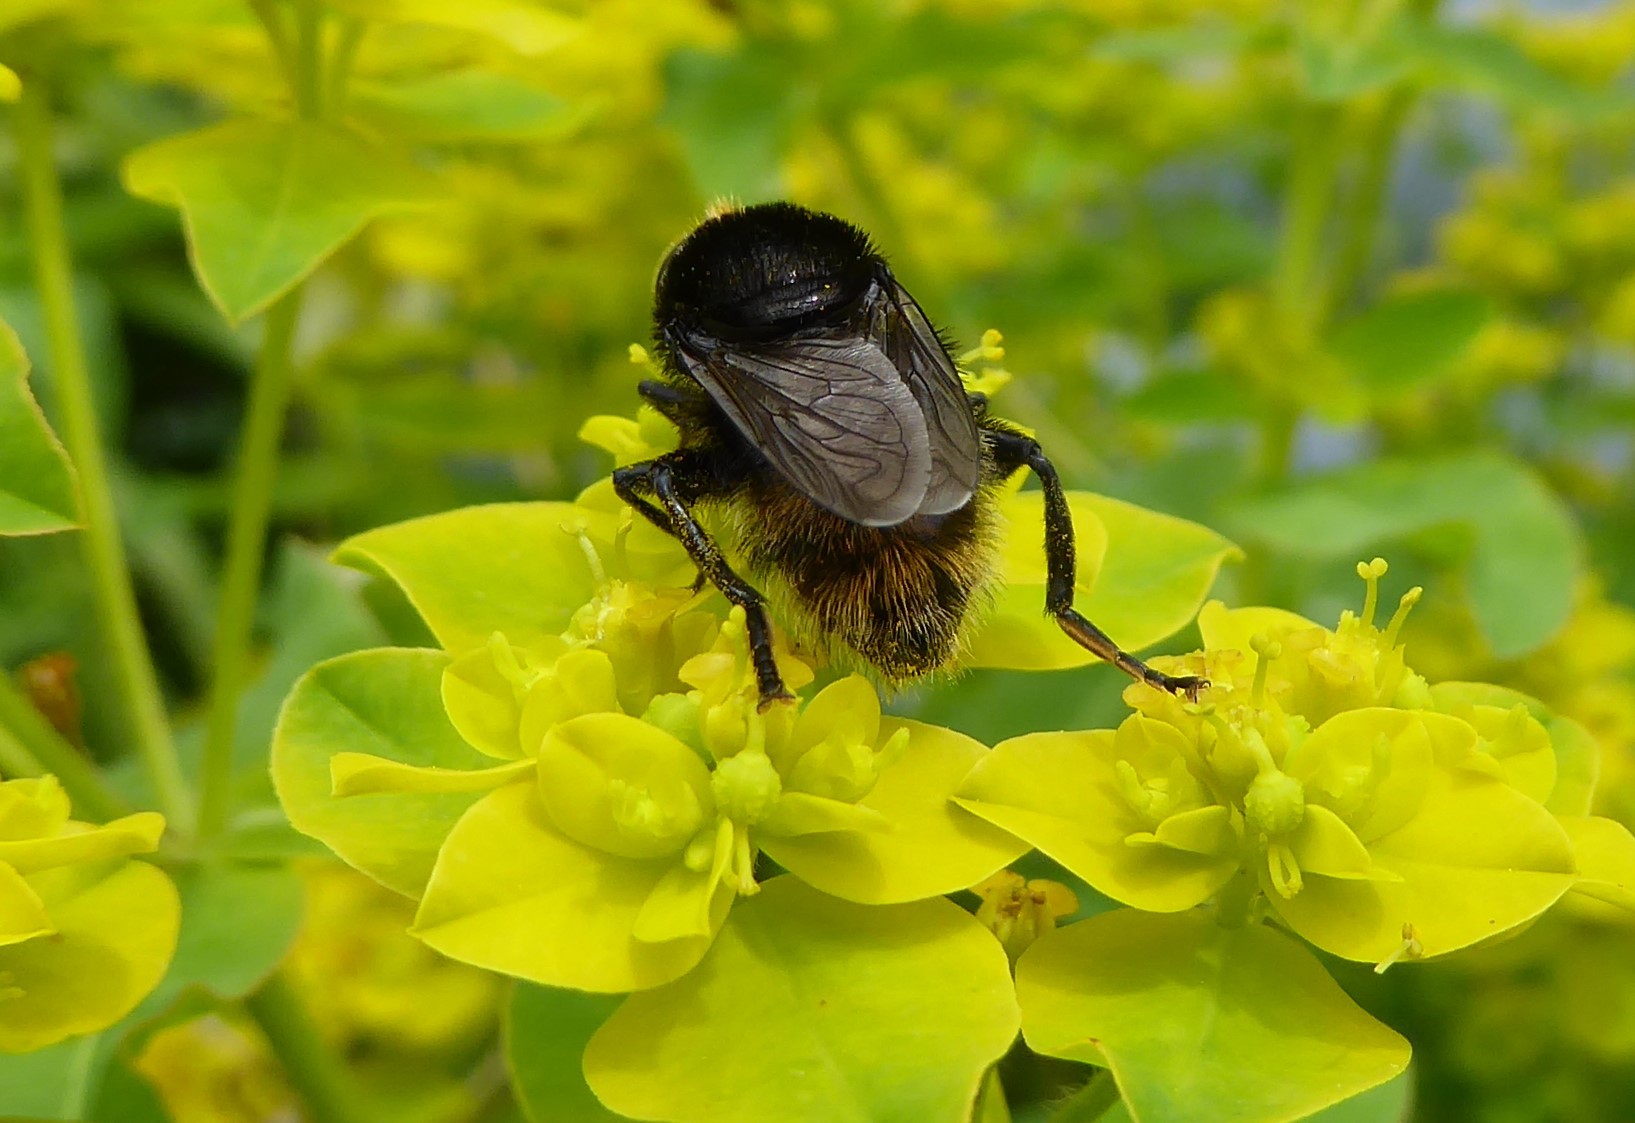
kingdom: Animalia
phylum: Arthropoda
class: Insecta
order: Diptera
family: Syrphidae
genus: Merodon
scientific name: Merodon equestris
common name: Greater bulb-fly
